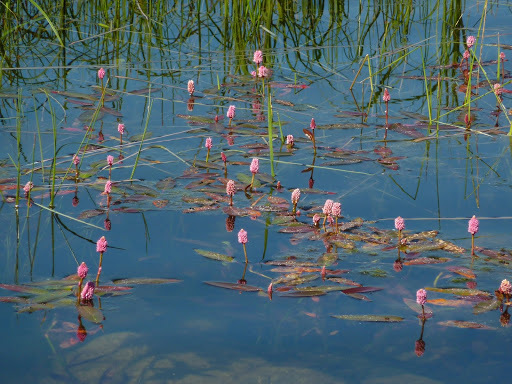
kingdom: Plantae
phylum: Tracheophyta
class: Magnoliopsida
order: Caryophyllales
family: Polygonaceae
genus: Persicaria
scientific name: Persicaria amphibia
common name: Amphibious bistort
